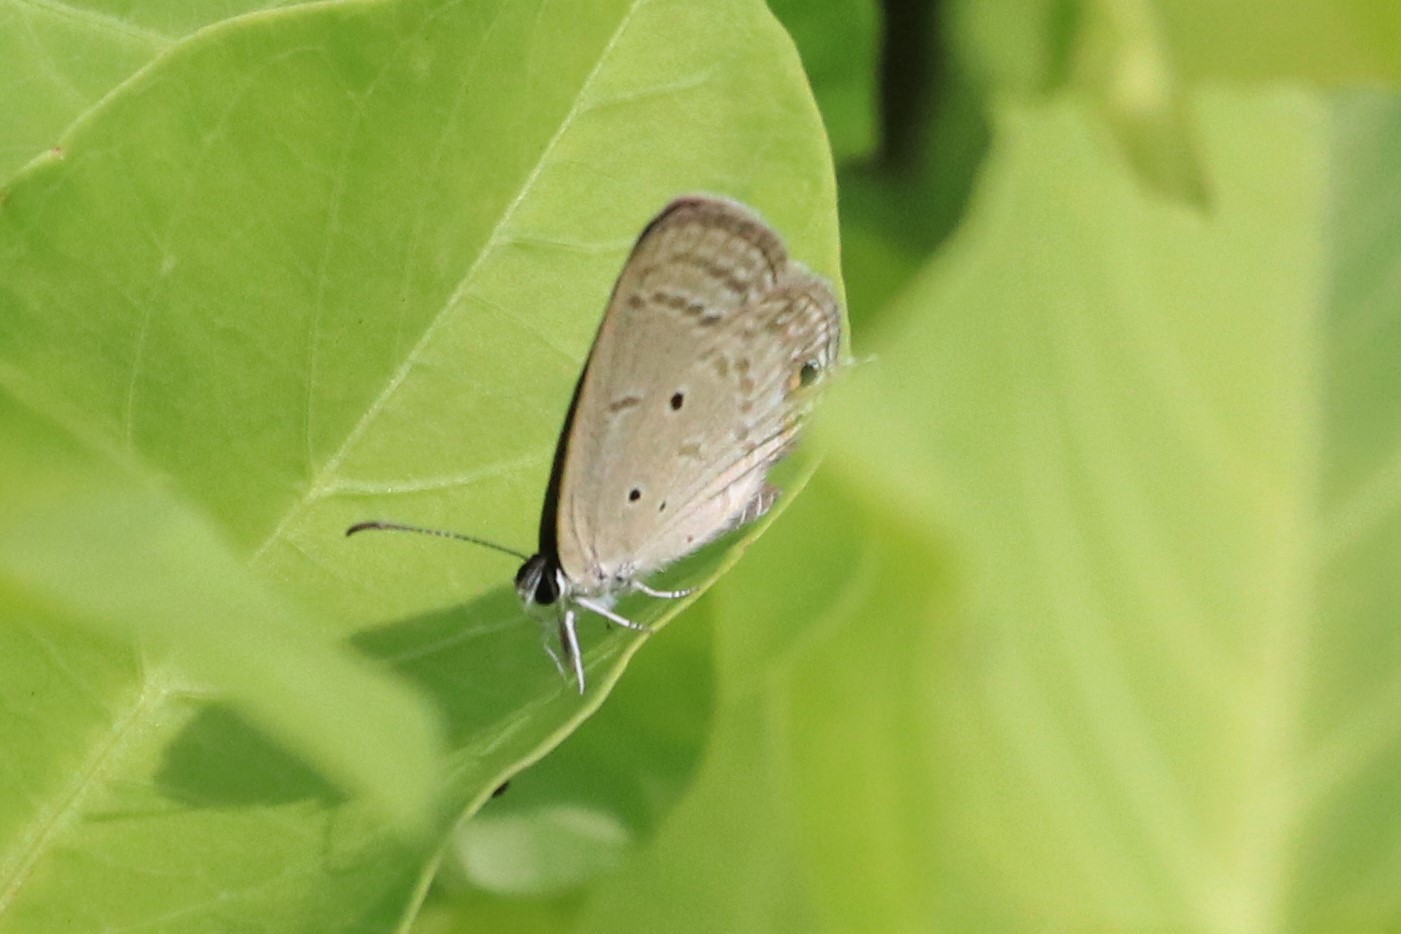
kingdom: Animalia
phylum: Arthropoda
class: Insecta
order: Lepidoptera
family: Lycaenidae
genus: Euchrysops
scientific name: Euchrysops cnejus
